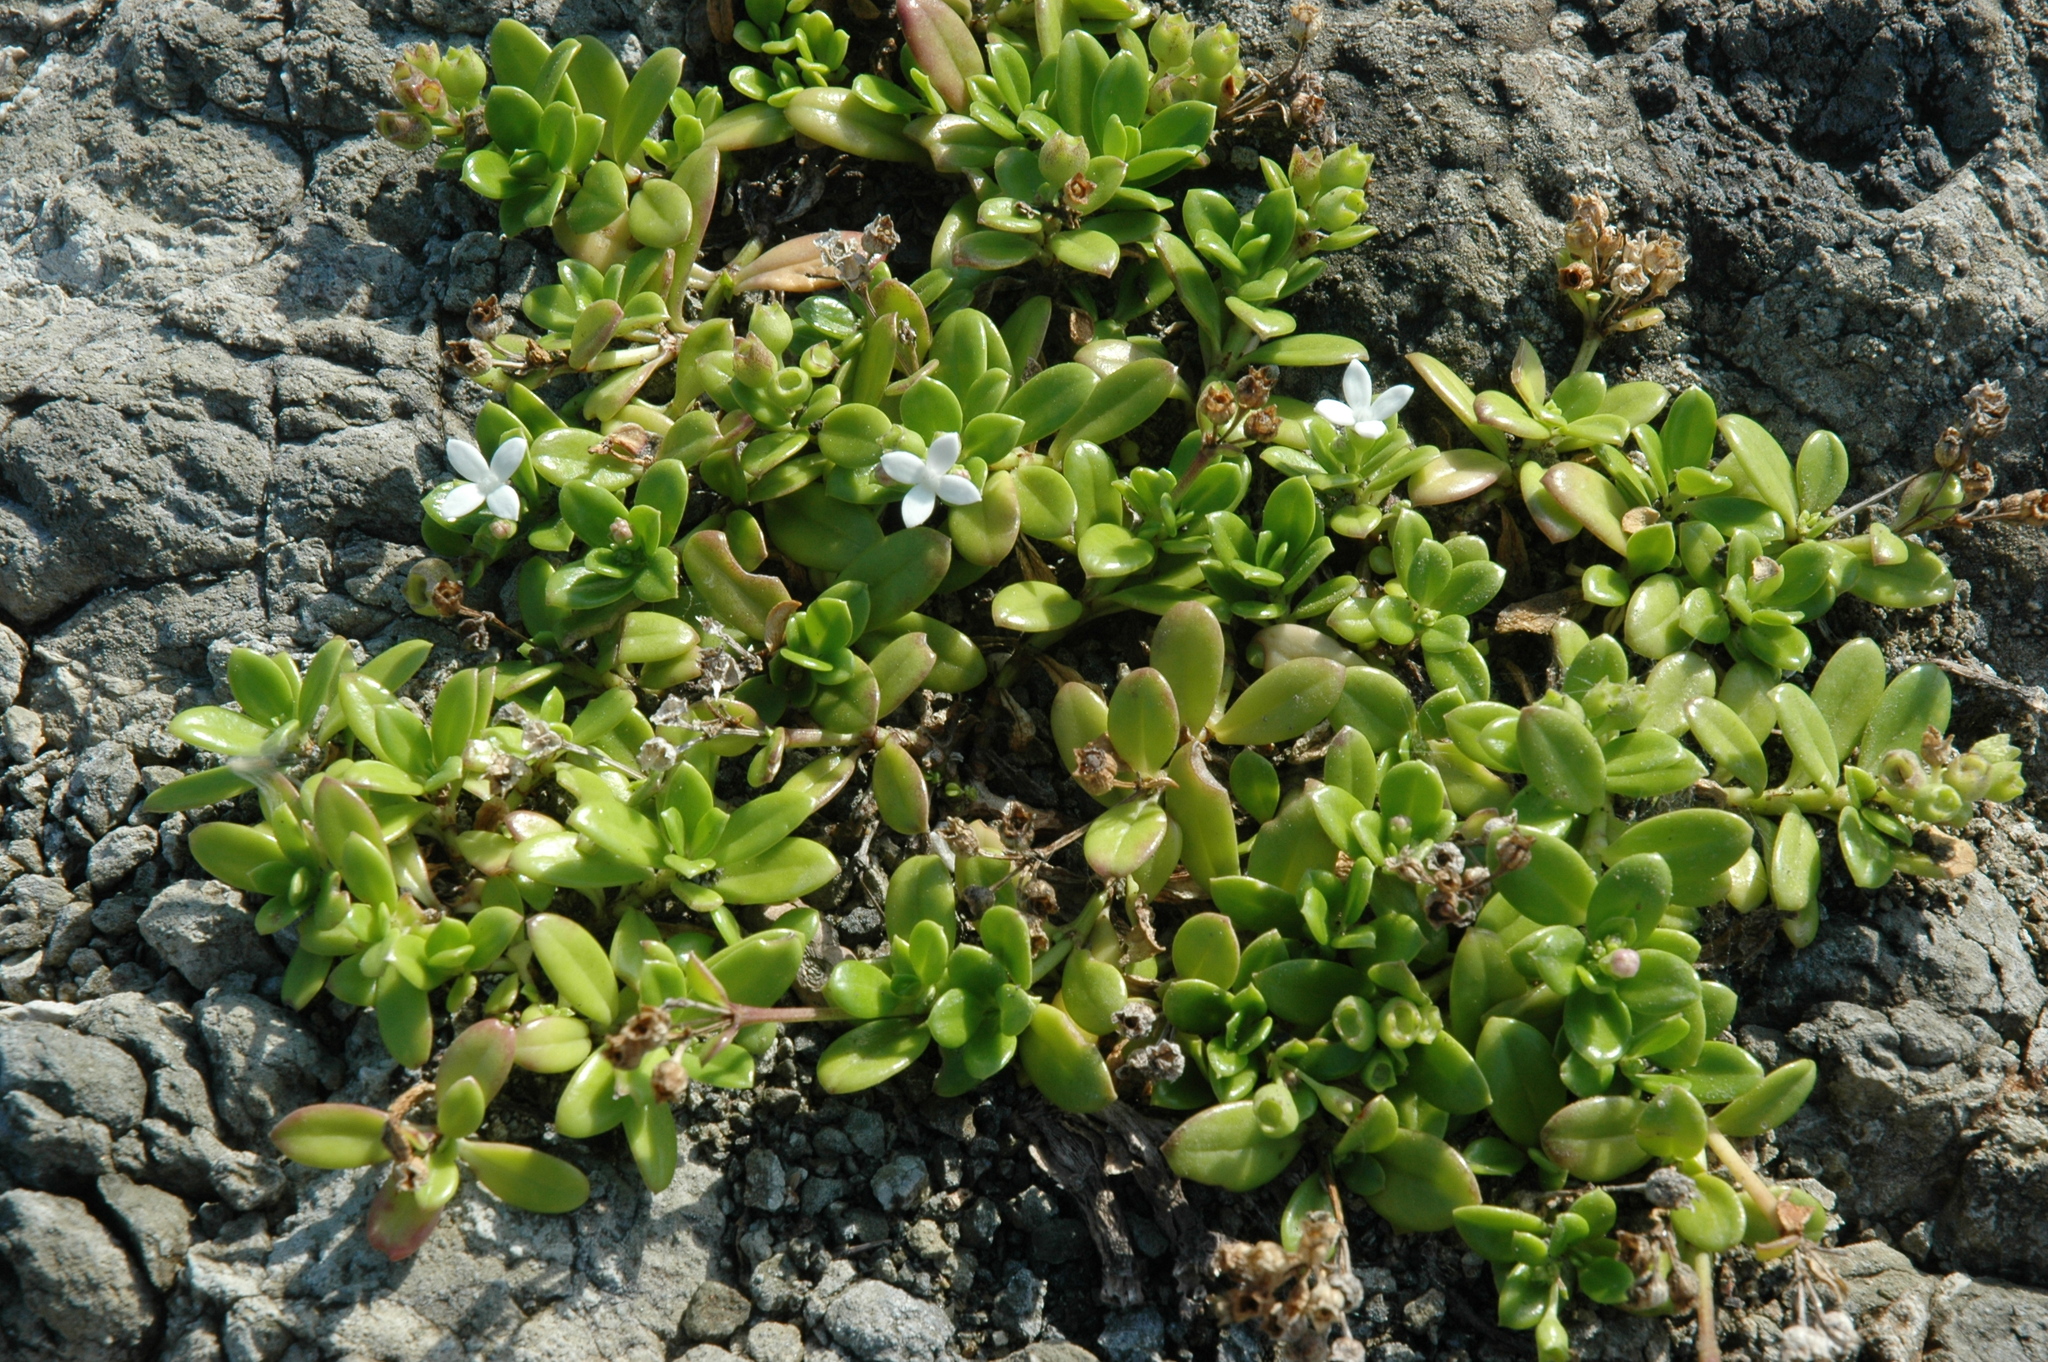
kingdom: Plantae
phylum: Tracheophyta
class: Magnoliopsida
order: Gentianales
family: Rubiaceae
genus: Leptopetalum
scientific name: Leptopetalum strigulosum
